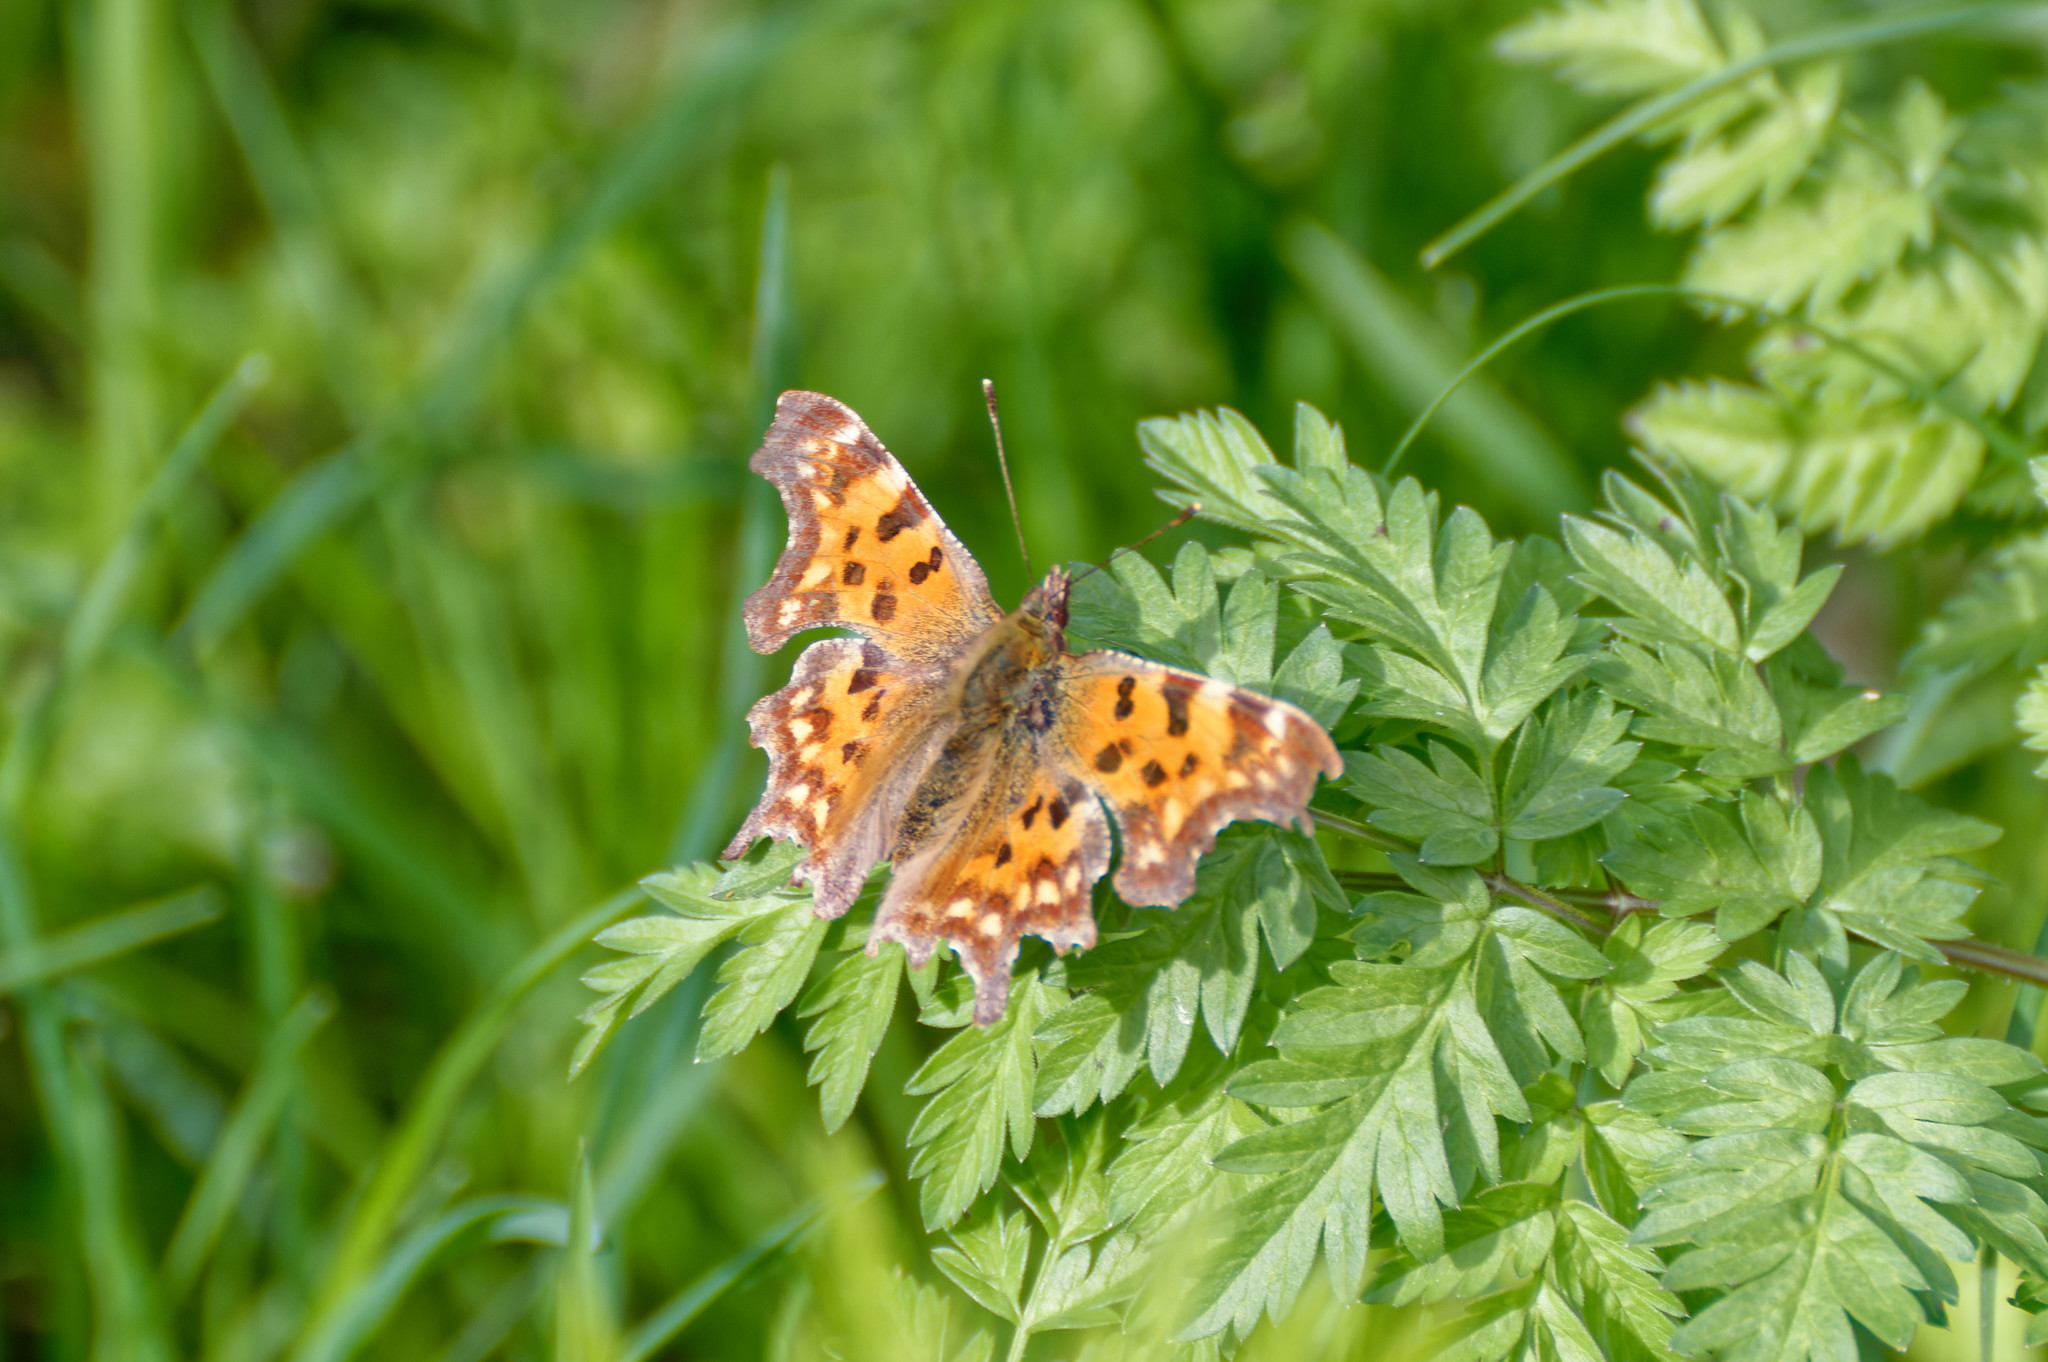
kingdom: Animalia
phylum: Arthropoda
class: Insecta
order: Lepidoptera
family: Nymphalidae
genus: Polygonia
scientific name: Polygonia c-album
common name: Comma
